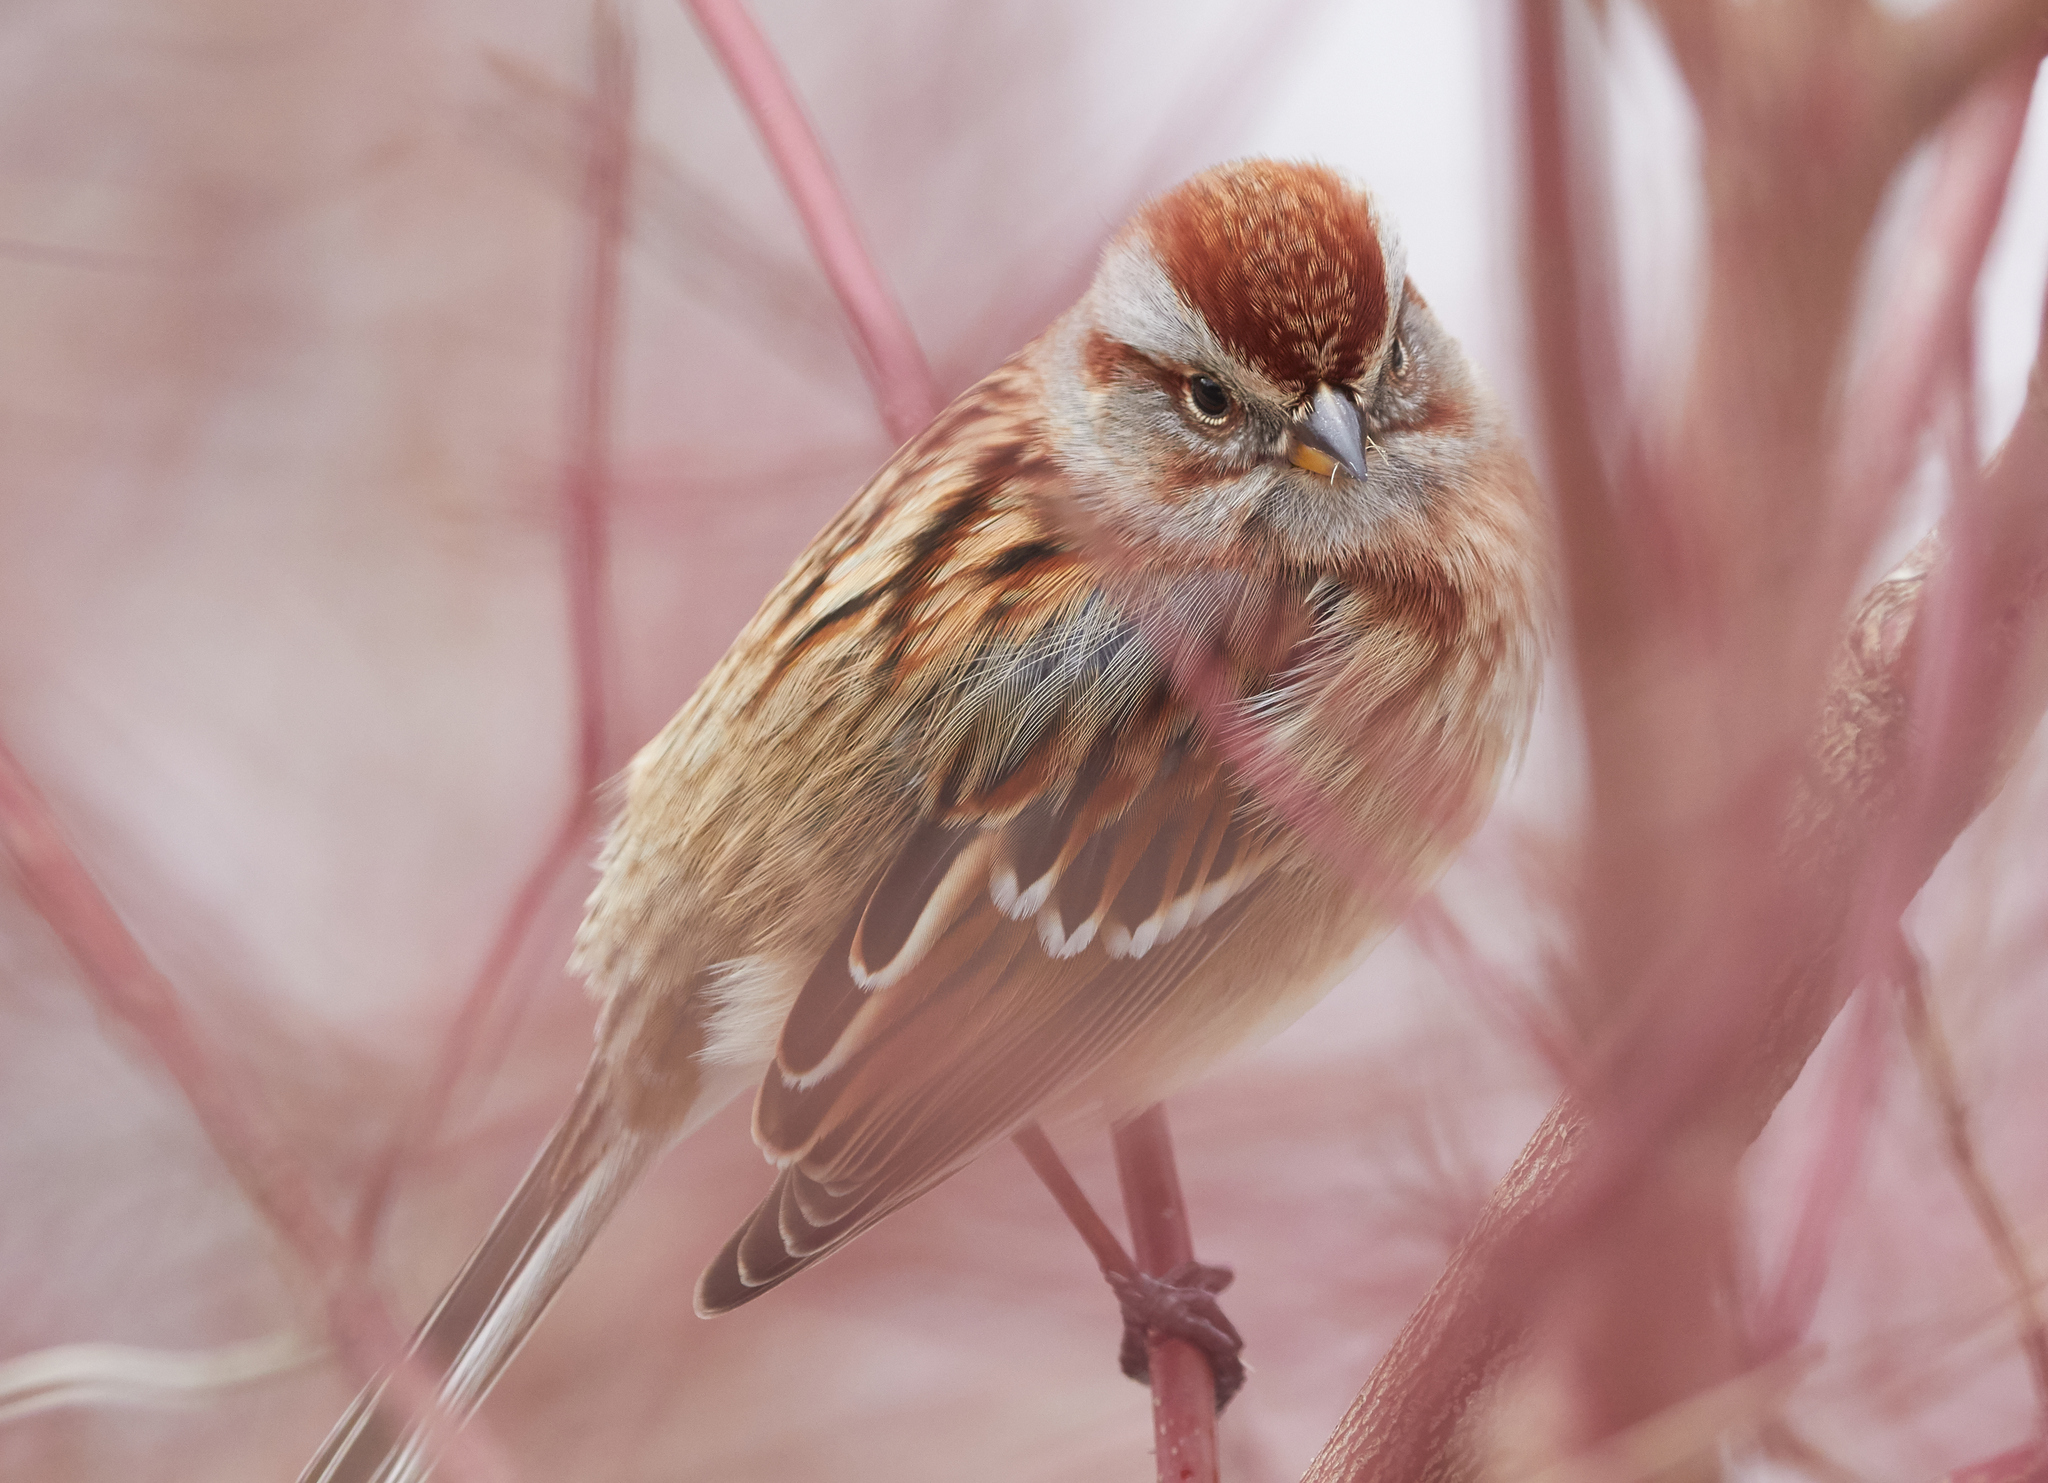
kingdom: Animalia
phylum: Chordata
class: Aves
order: Passeriformes
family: Passerellidae
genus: Spizelloides
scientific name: Spizelloides arborea
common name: American tree sparrow
